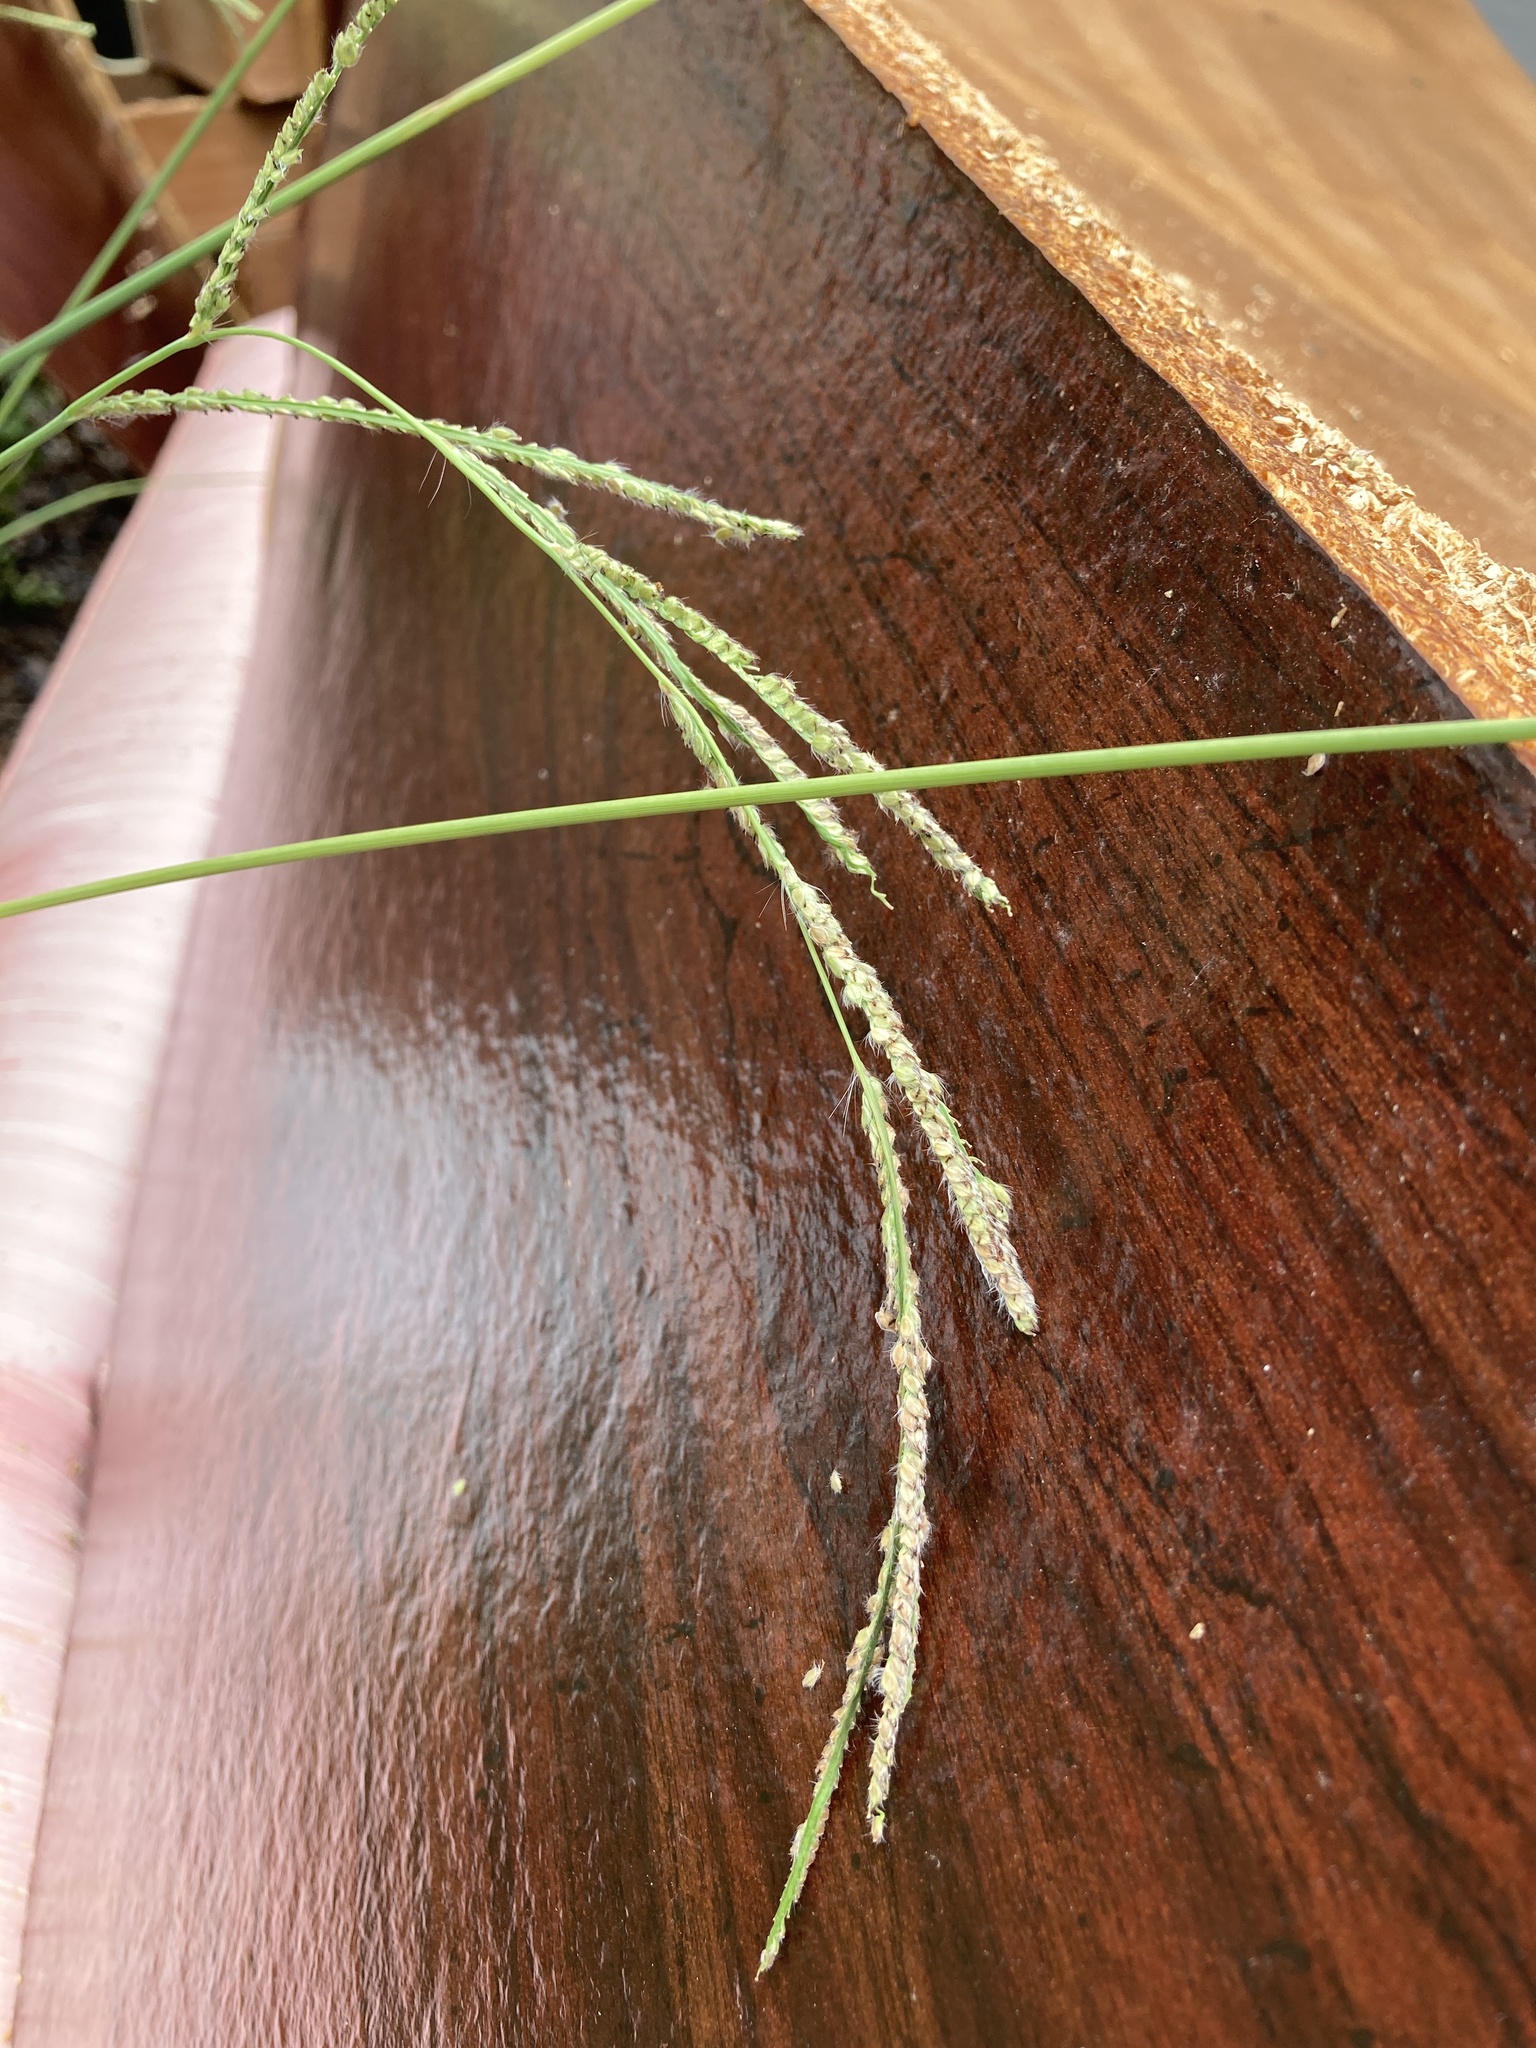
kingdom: Plantae
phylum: Tracheophyta
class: Liliopsida
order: Poales
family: Poaceae
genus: Paspalum
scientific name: Paspalum urvillei
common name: Vasey's grass
